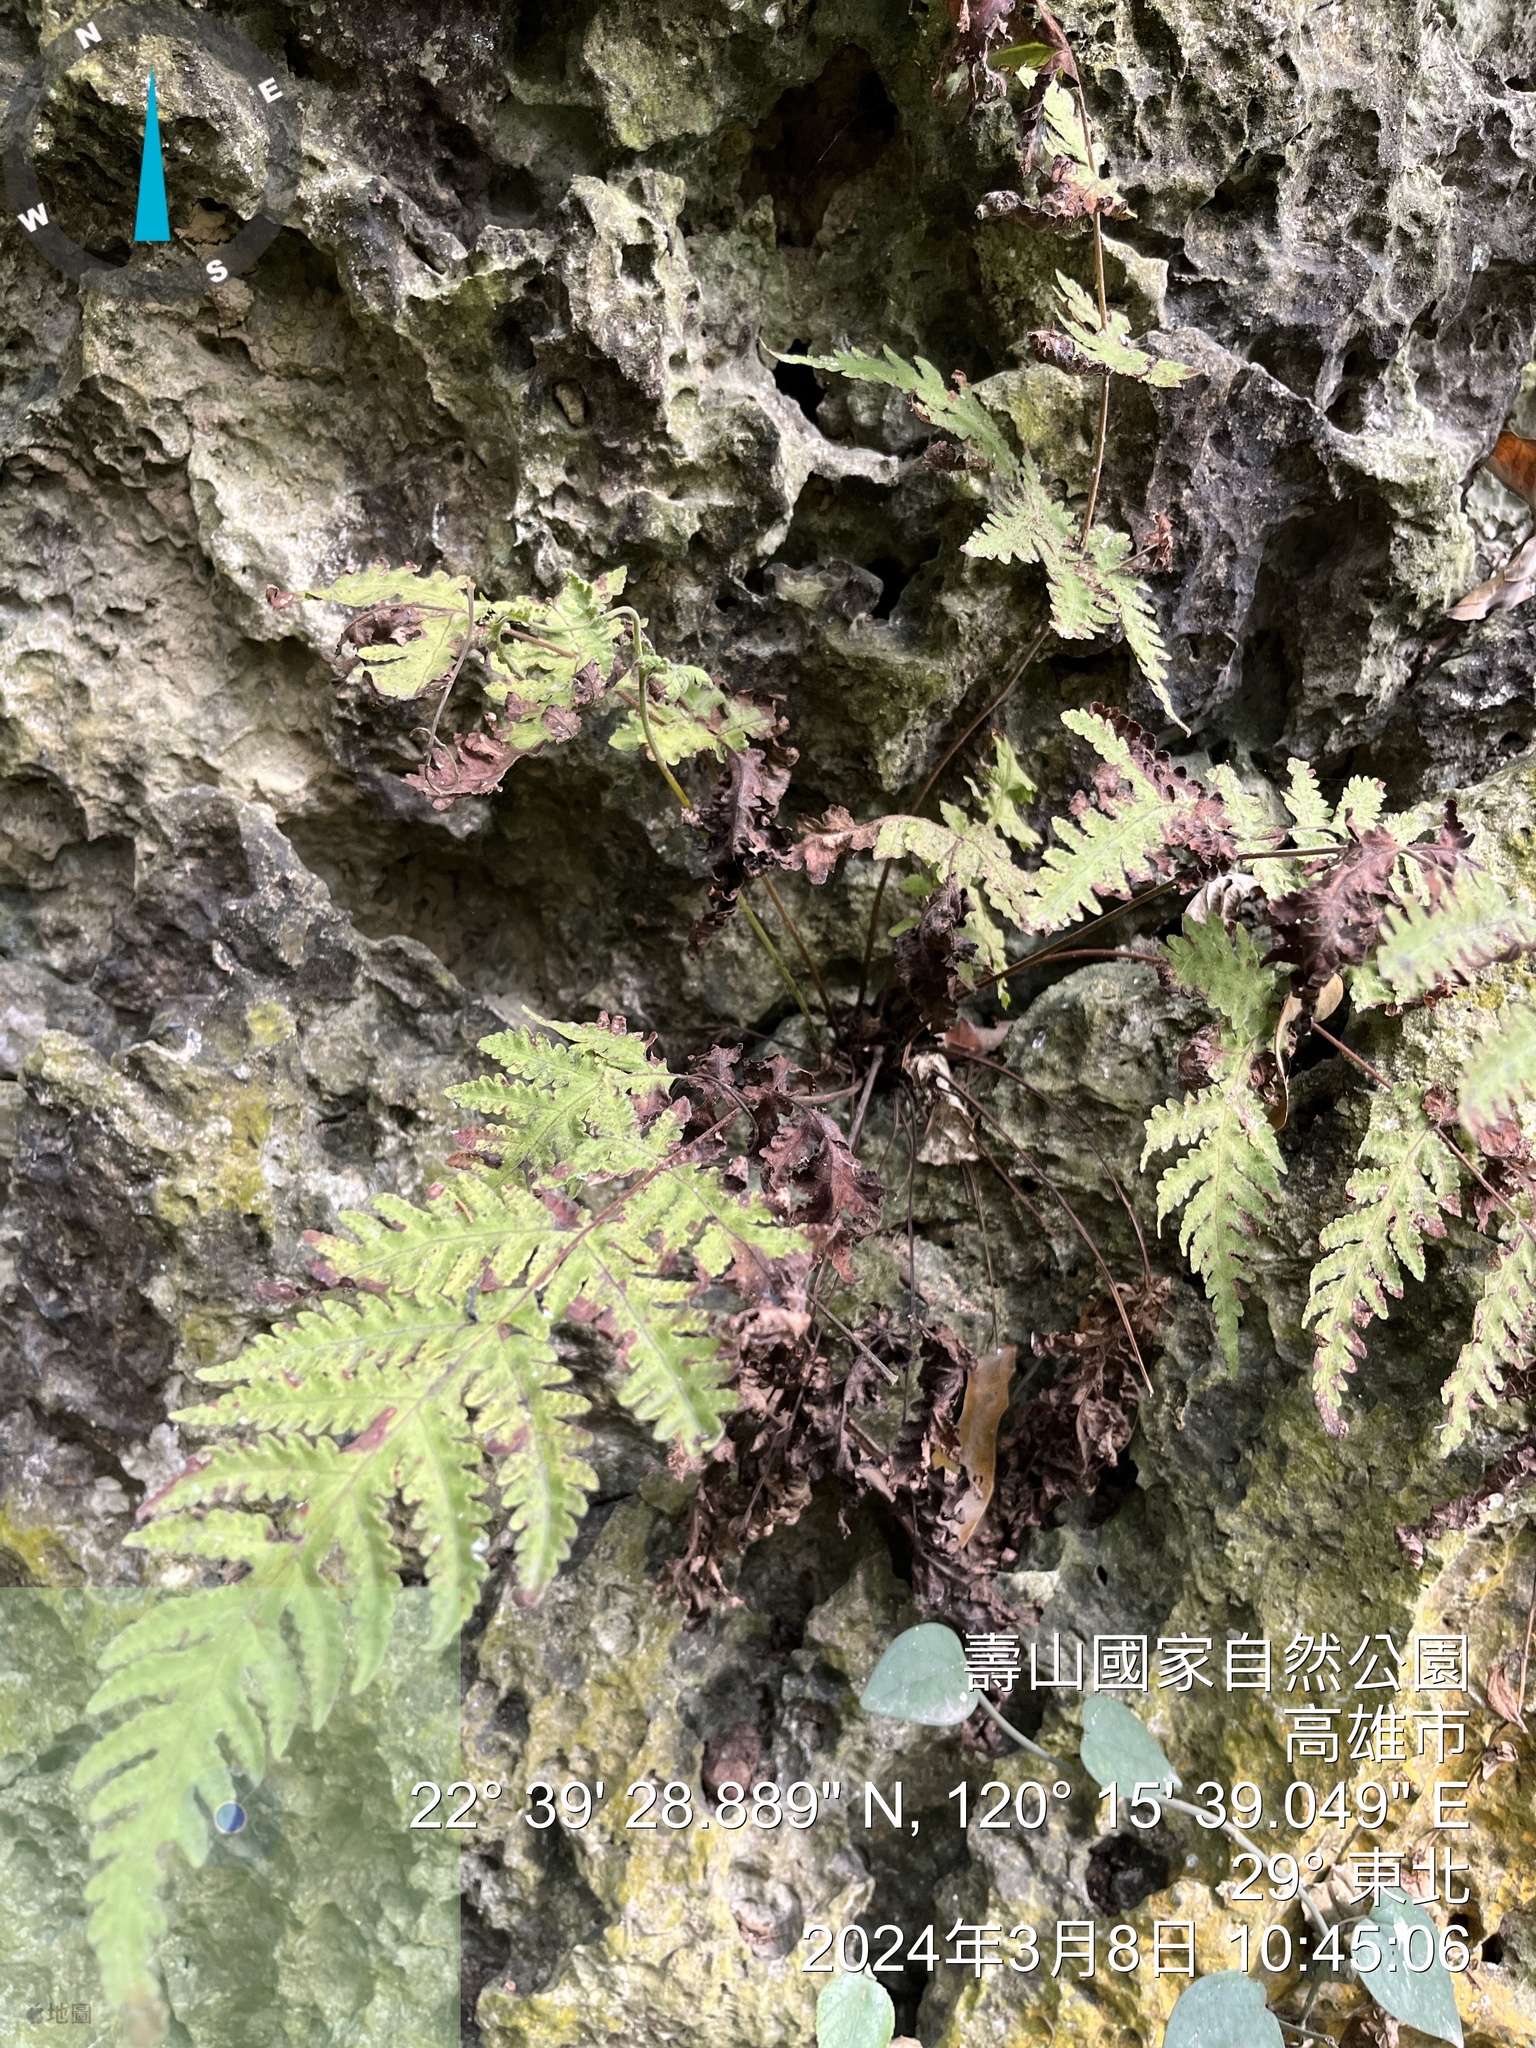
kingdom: Plantae
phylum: Tracheophyta
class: Polypodiopsida
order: Polypodiales
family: Tectariaceae
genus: Tectaria
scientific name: Tectaria membranacea
